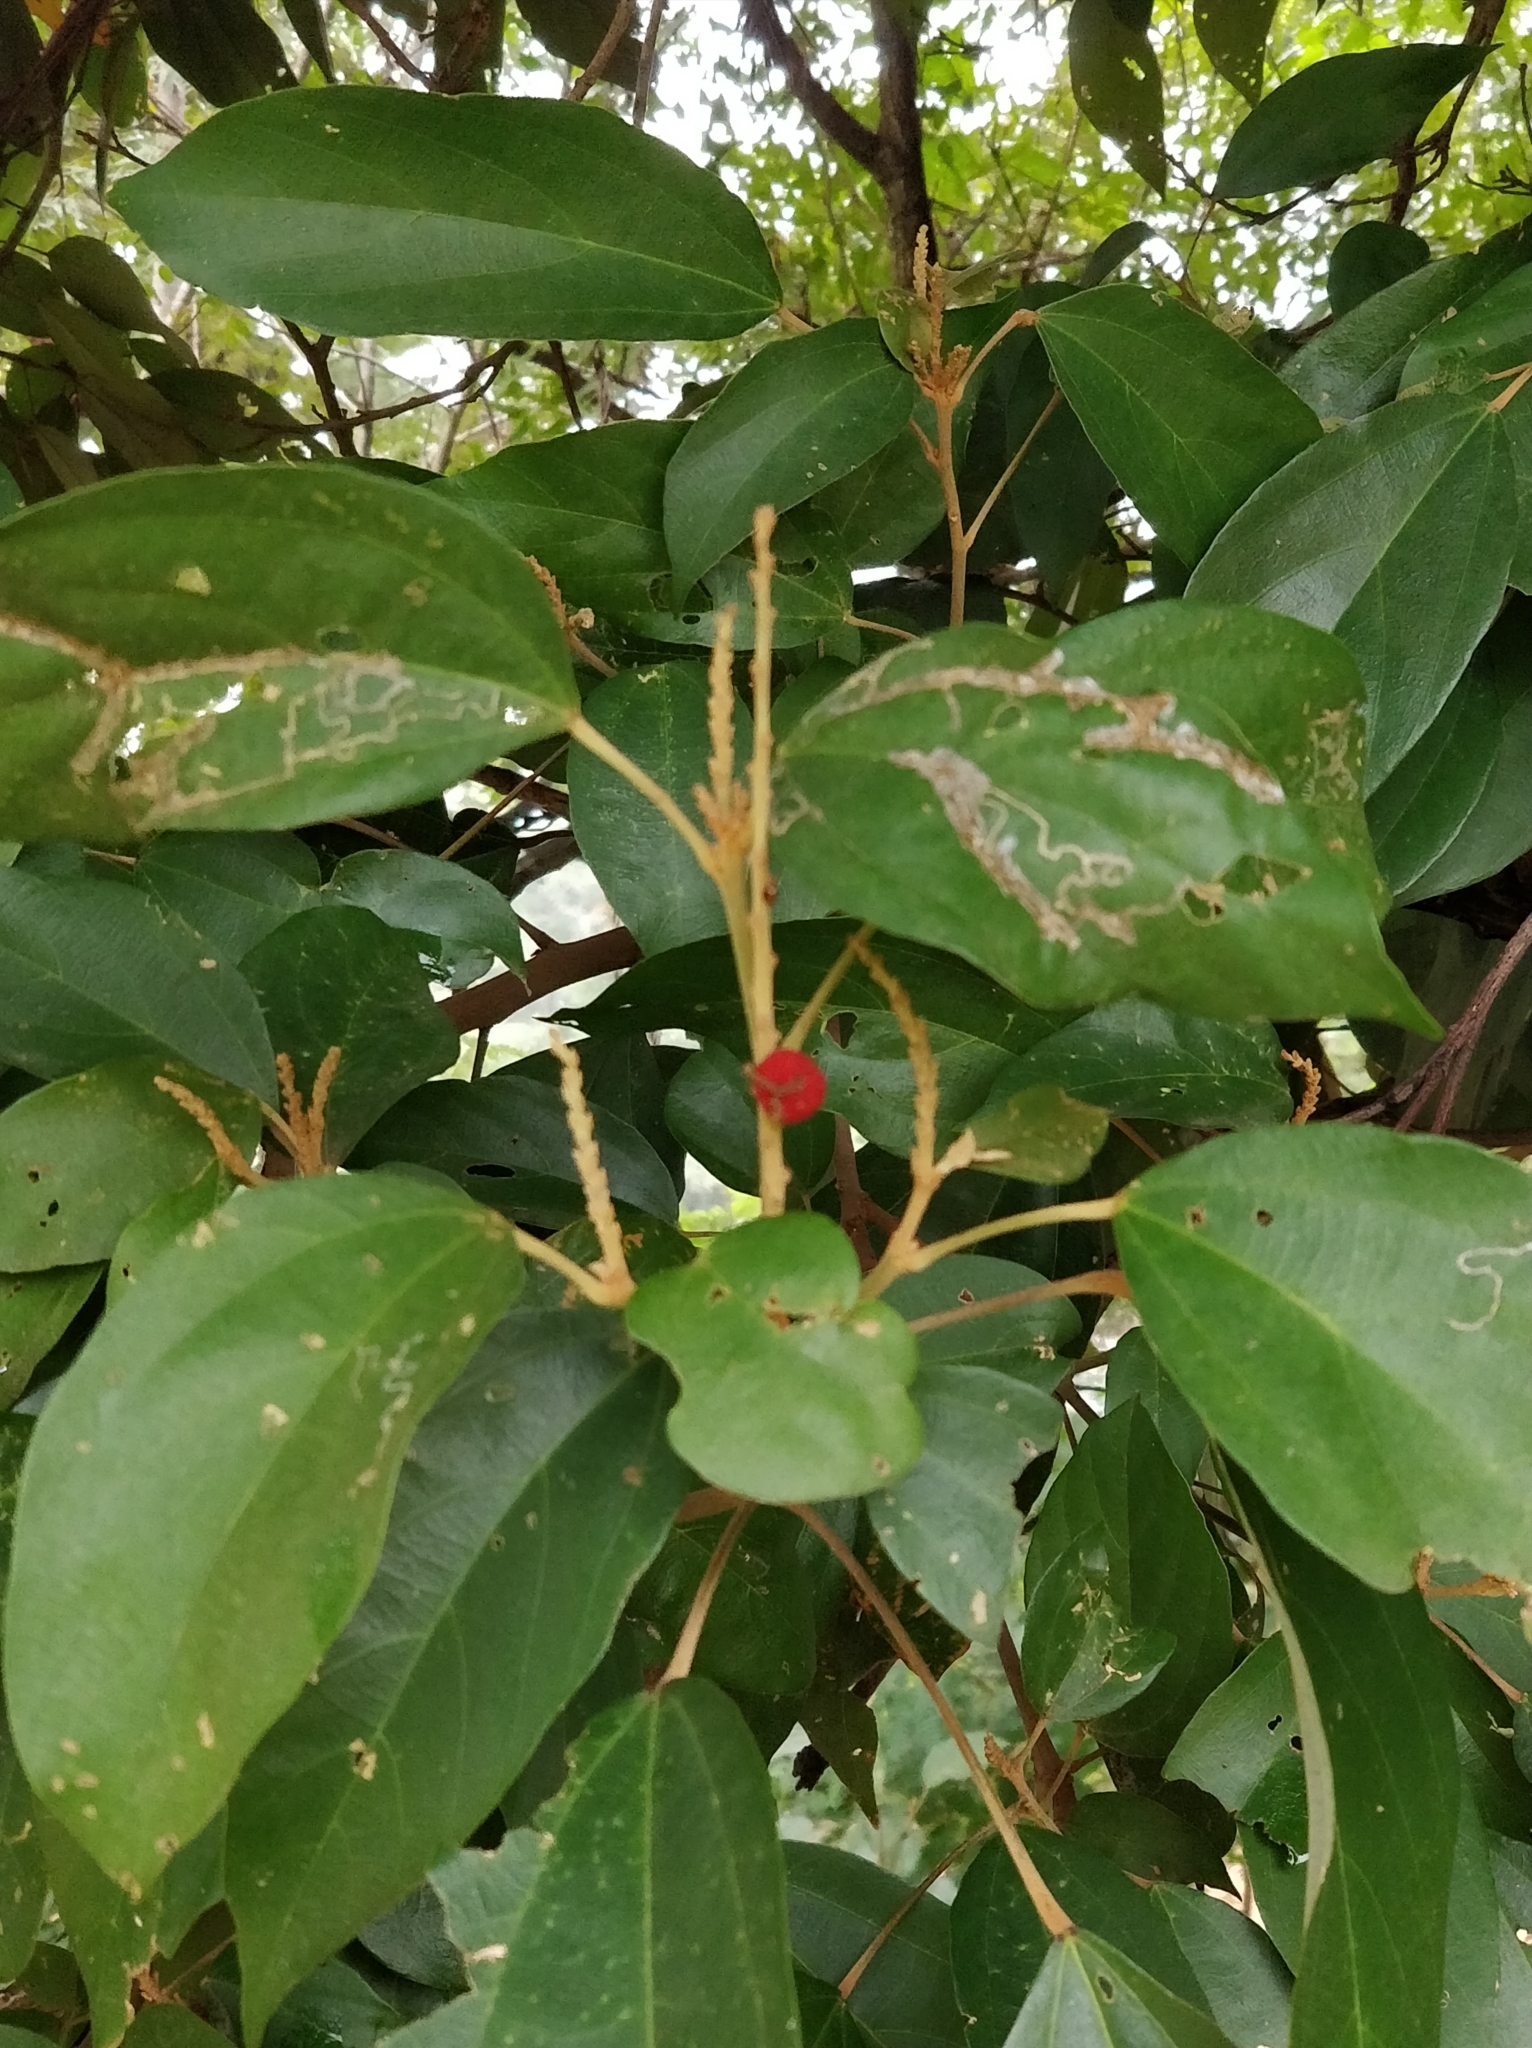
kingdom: Plantae
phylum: Tracheophyta
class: Magnoliopsida
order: Malpighiales
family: Euphorbiaceae
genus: Mallotus
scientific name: Mallotus philippensis
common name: Kamala tree
